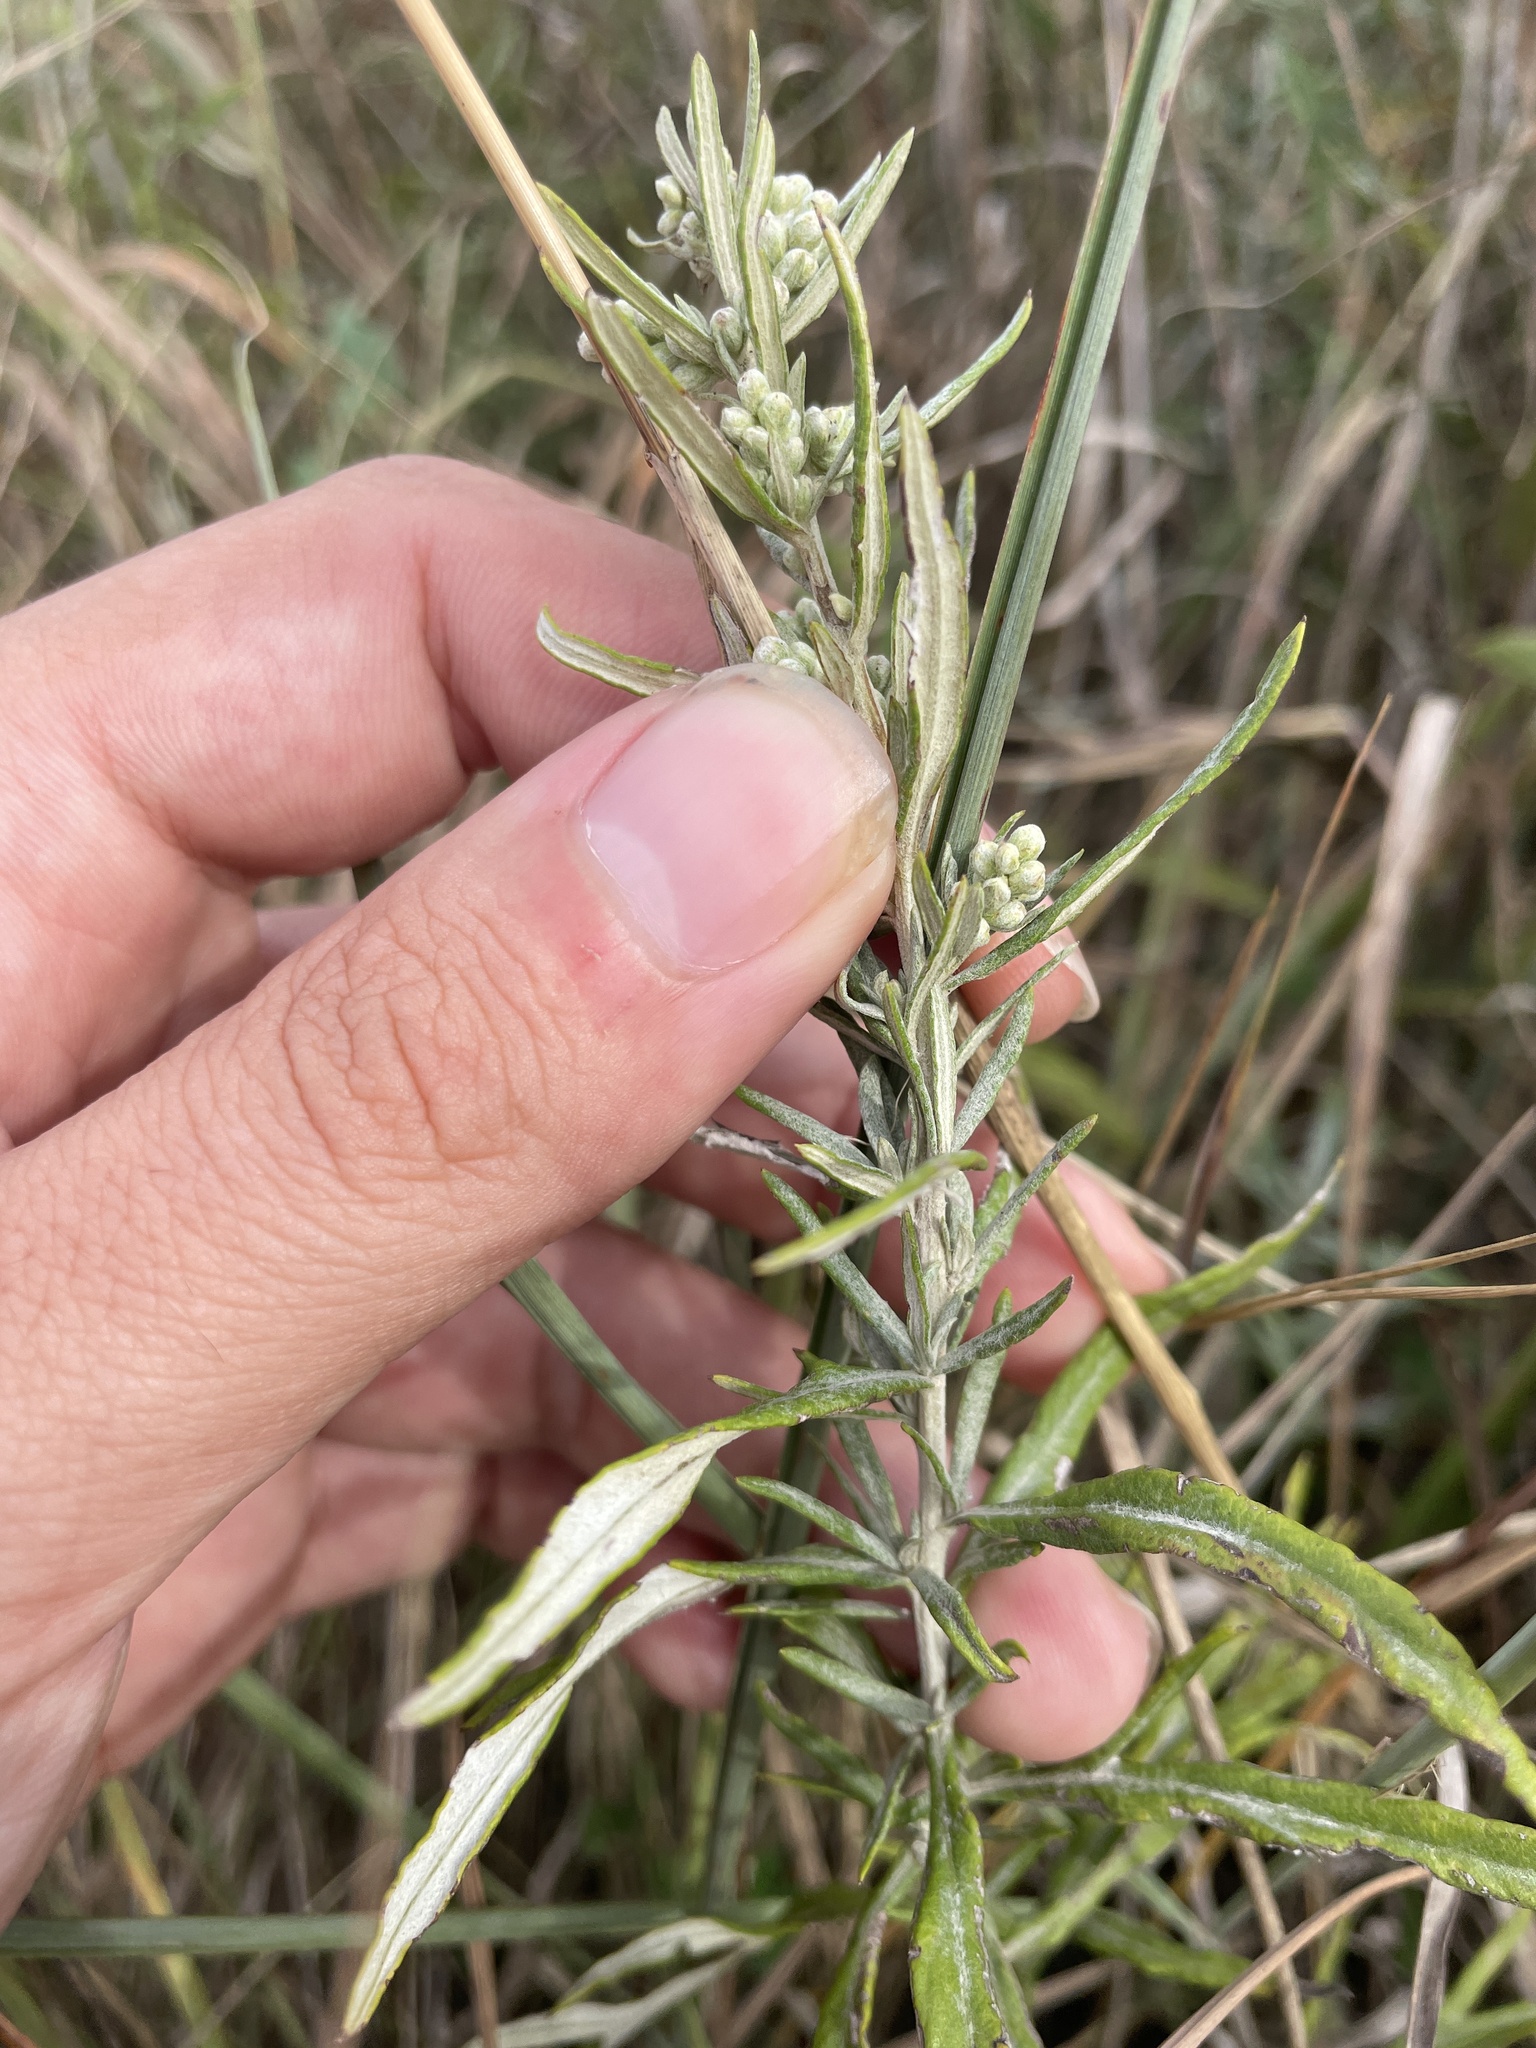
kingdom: Plantae
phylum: Tracheophyta
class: Magnoliopsida
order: Asterales
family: Asteraceae
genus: Artemisia
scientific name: Artemisia ludoviciana
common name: Western mugwort
